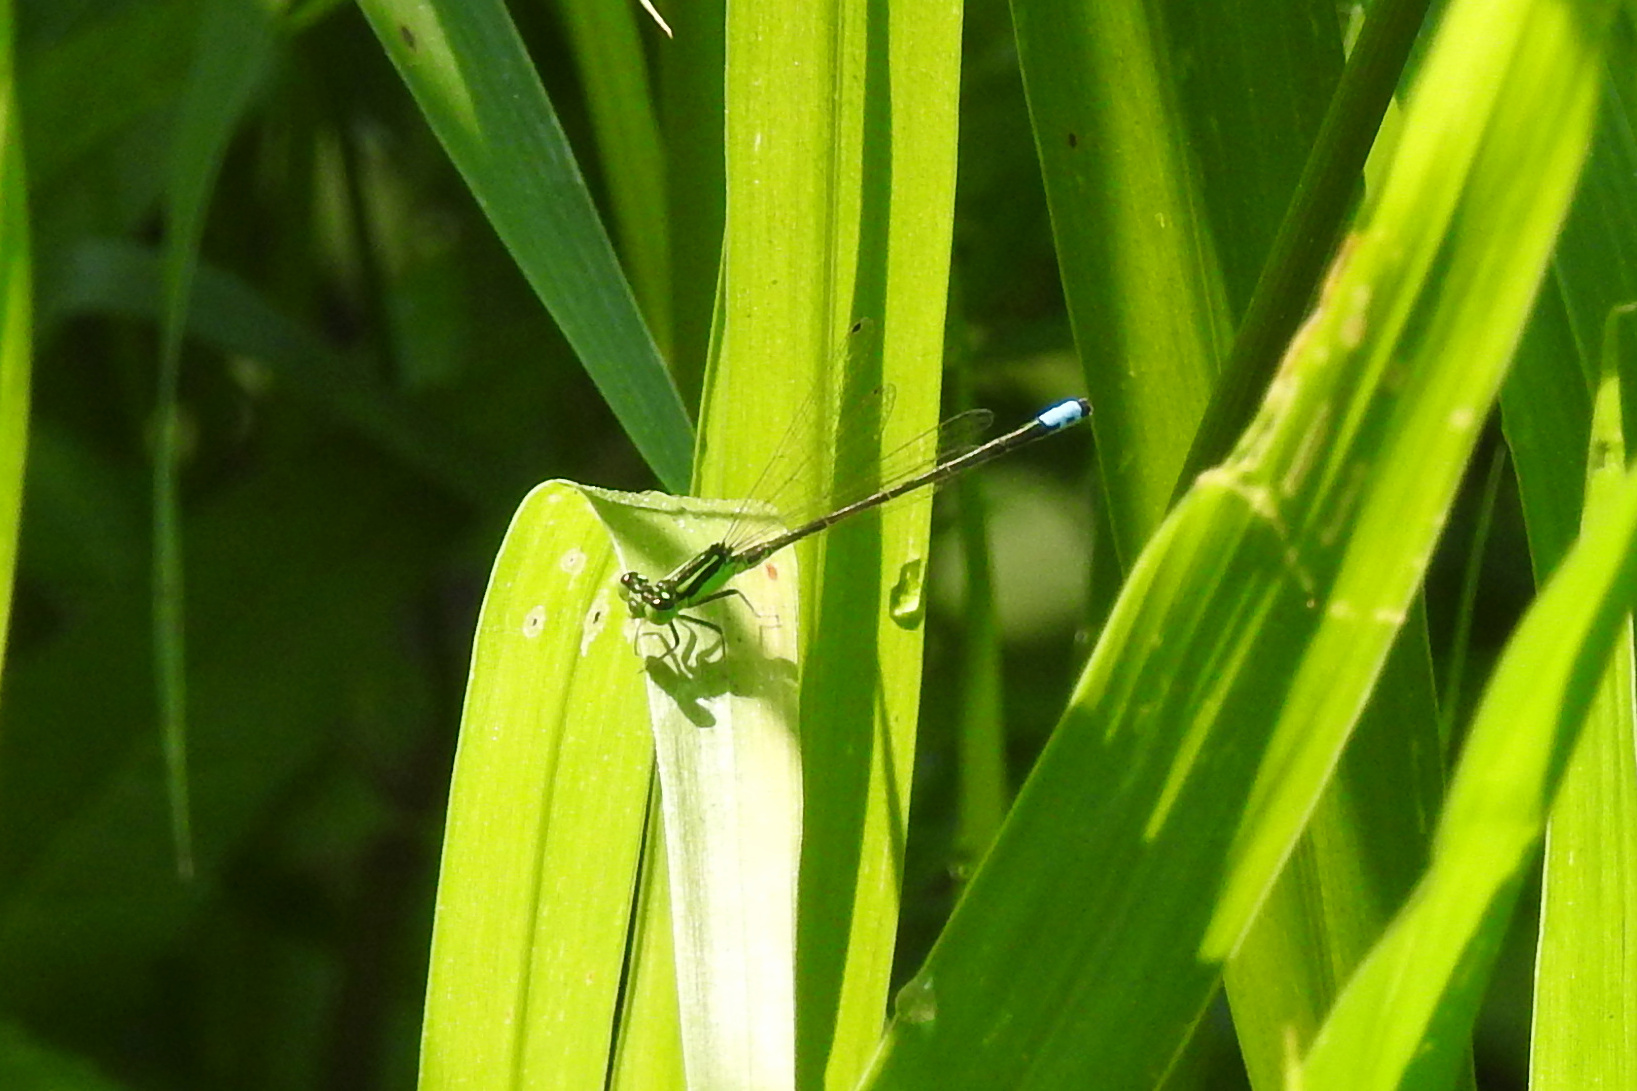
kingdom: Animalia
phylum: Arthropoda
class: Insecta
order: Odonata
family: Coenagrionidae
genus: Ischnura
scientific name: Ischnura verticalis
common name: Eastern forktail
